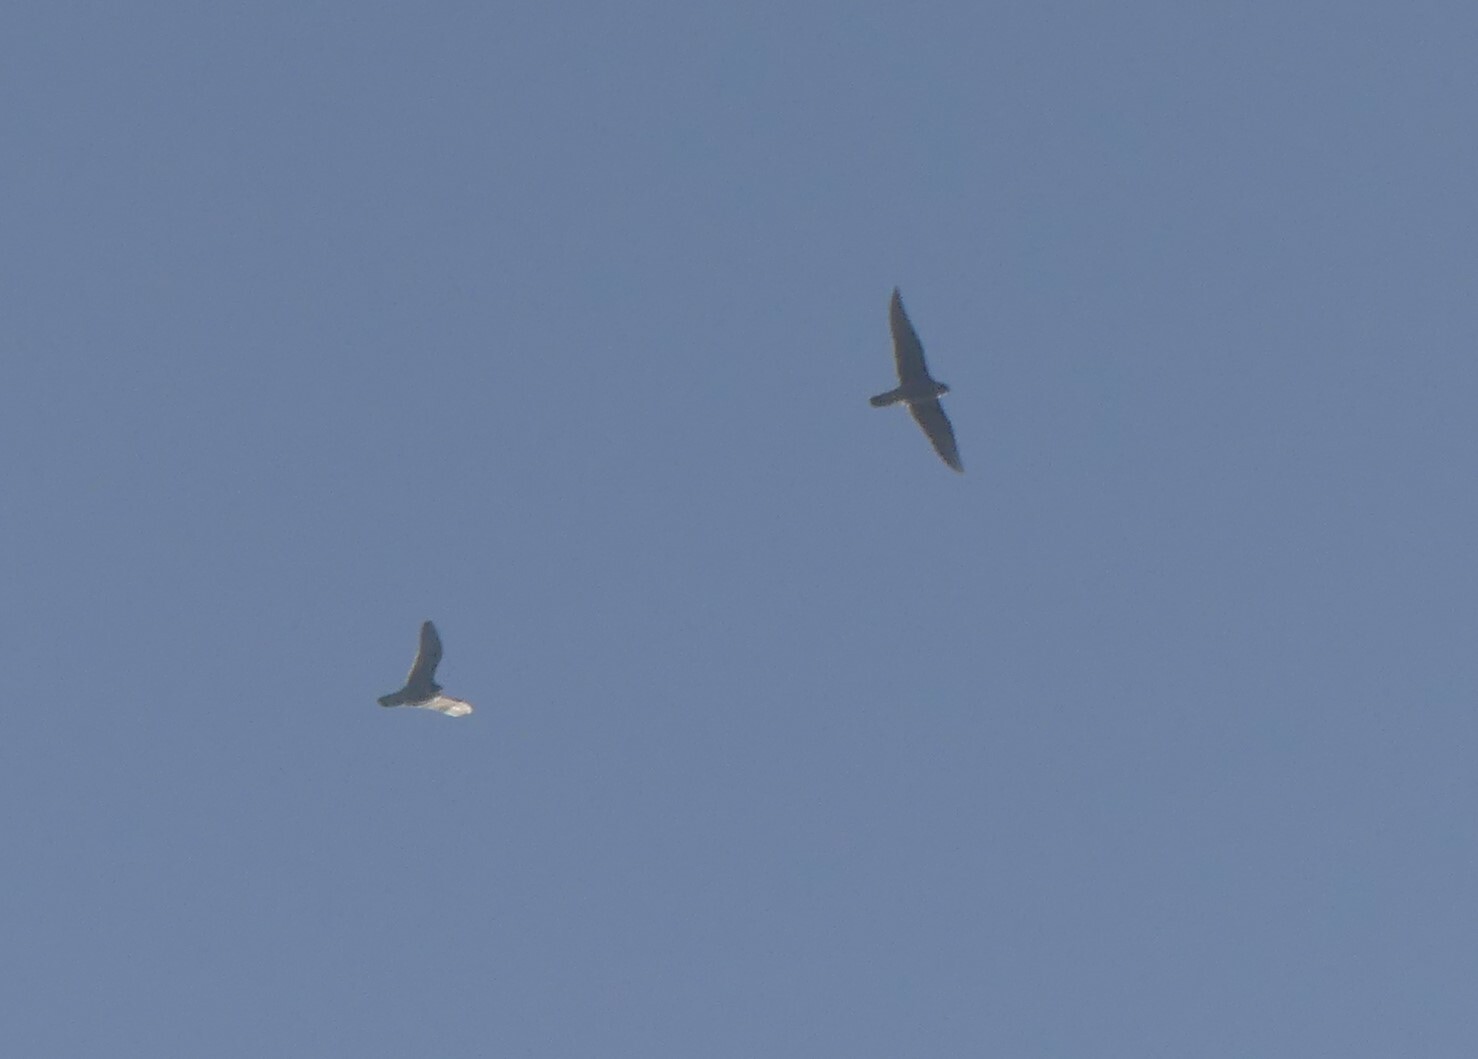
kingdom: Animalia
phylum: Chordata
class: Aves
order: Falconiformes
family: Falconidae
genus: Falco
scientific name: Falco peregrinus
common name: Peregrine falcon
